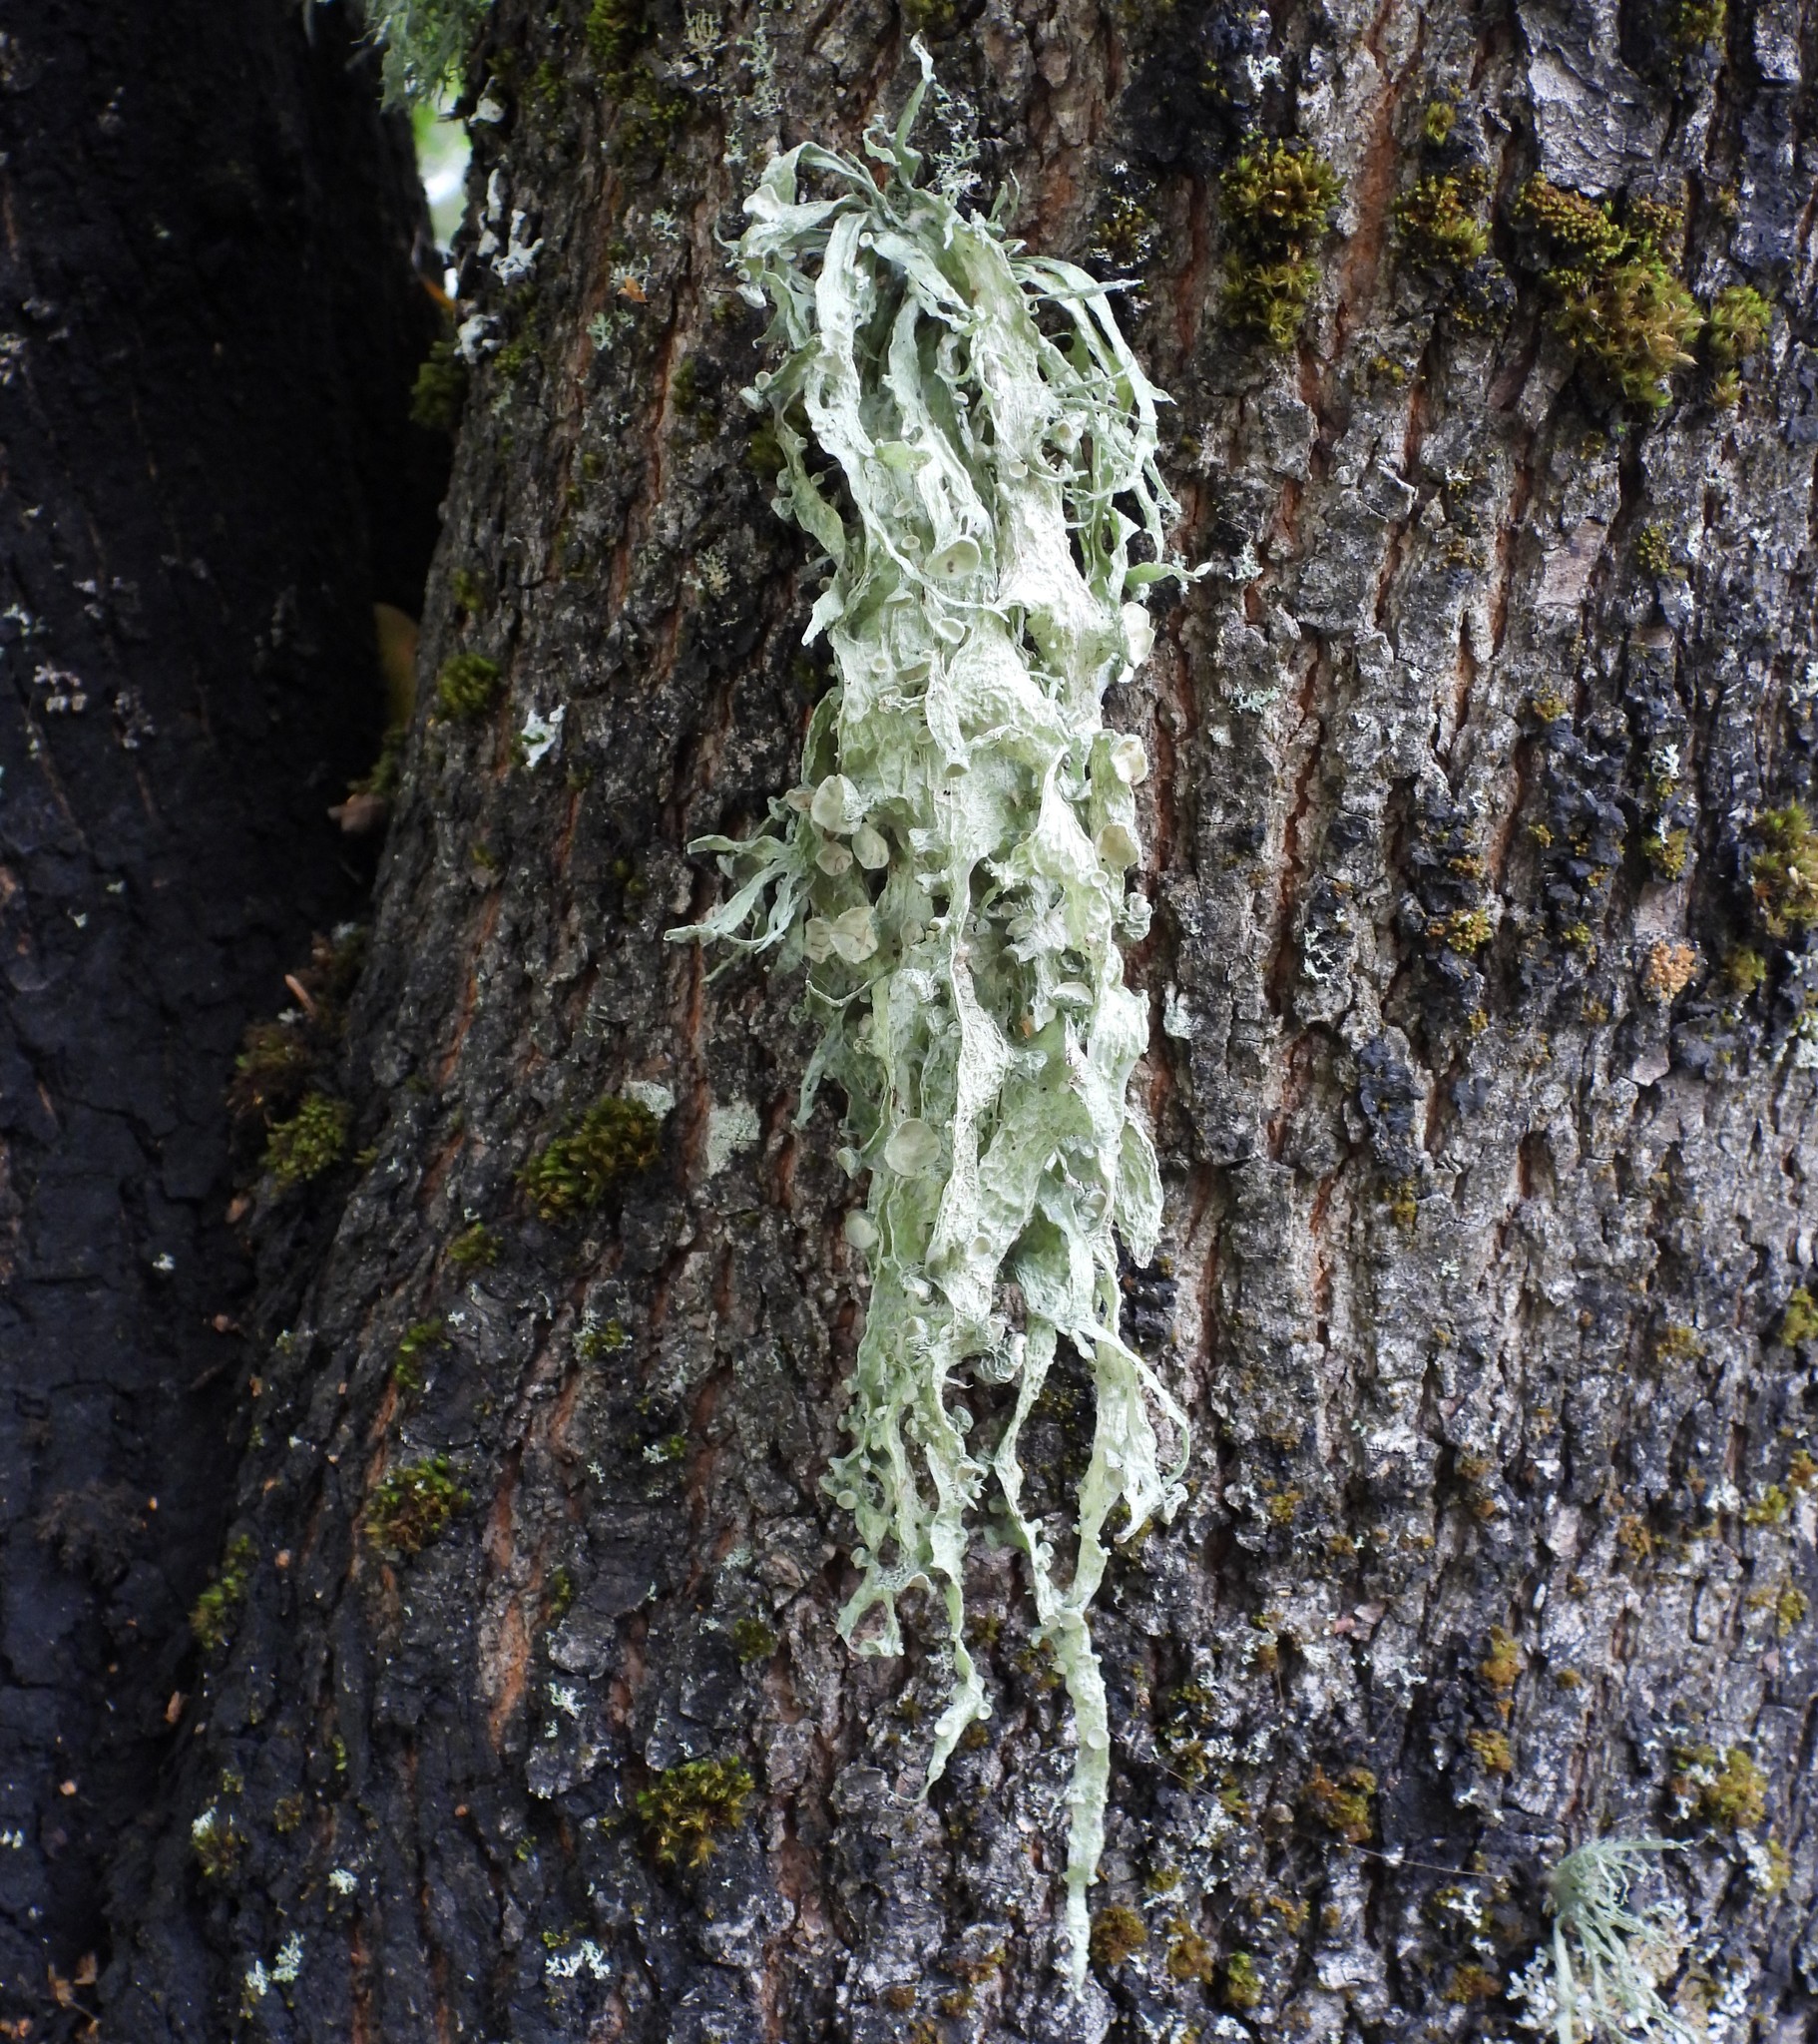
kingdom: Fungi
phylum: Ascomycota
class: Lecanoromycetes
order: Lecanorales
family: Ramalinaceae
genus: Ramalina
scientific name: Ramalina fraxinea
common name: Cartilage lichen
